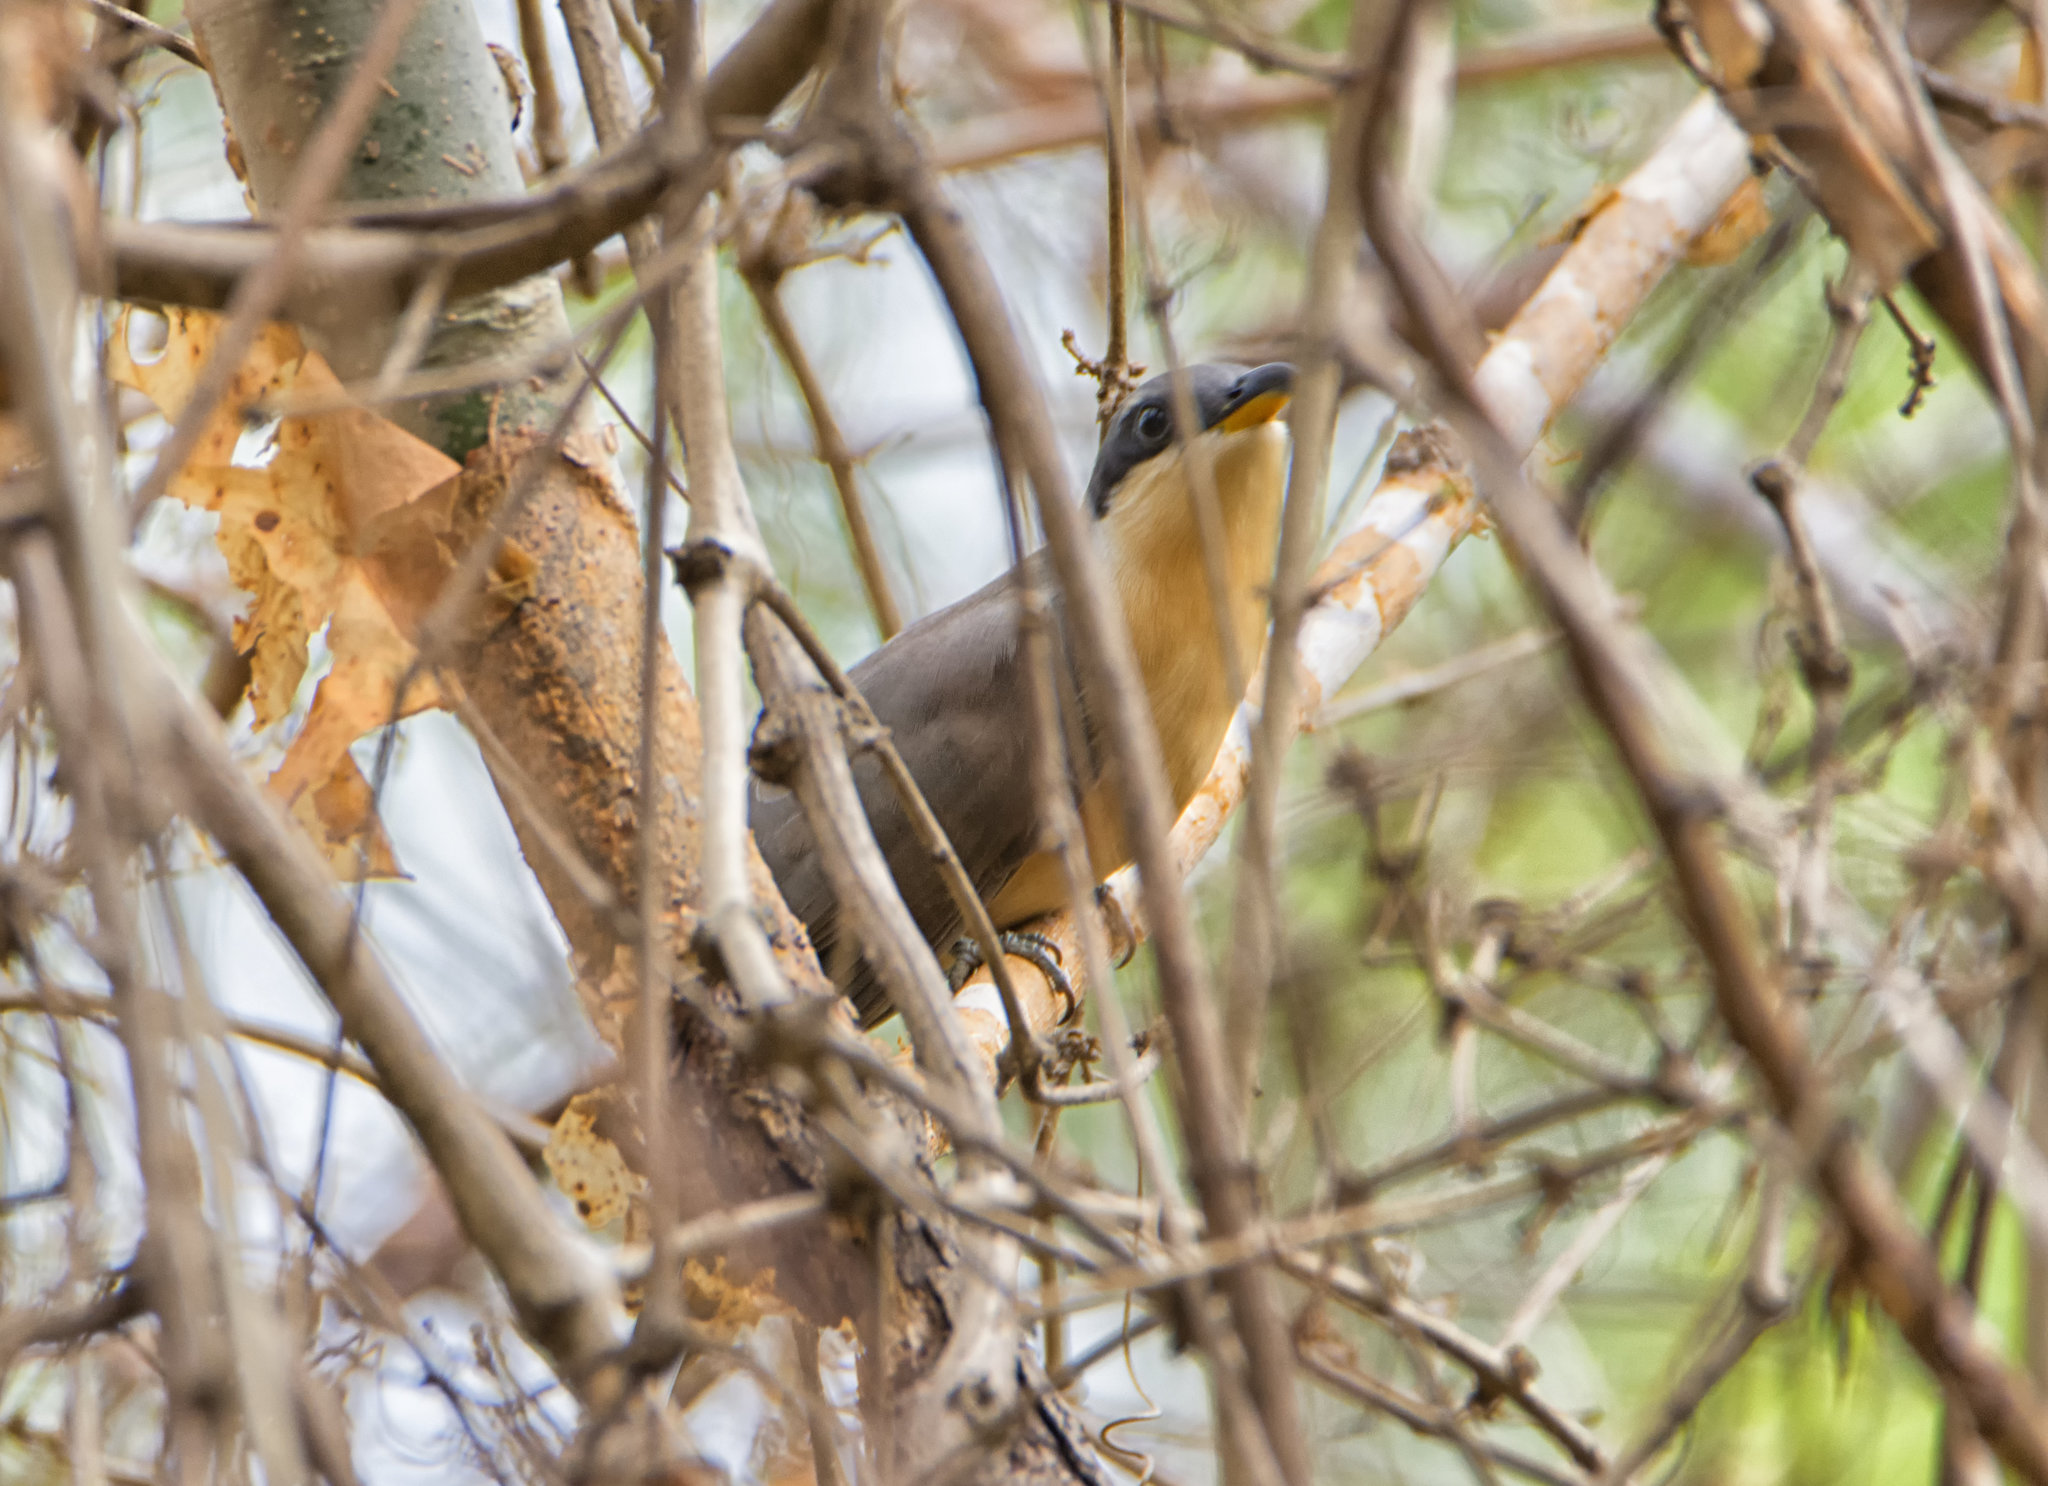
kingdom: Animalia
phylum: Chordata
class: Aves
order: Cuculiformes
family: Cuculidae
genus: Coccyzus
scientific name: Coccyzus minor
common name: Mangrove cuckoo
